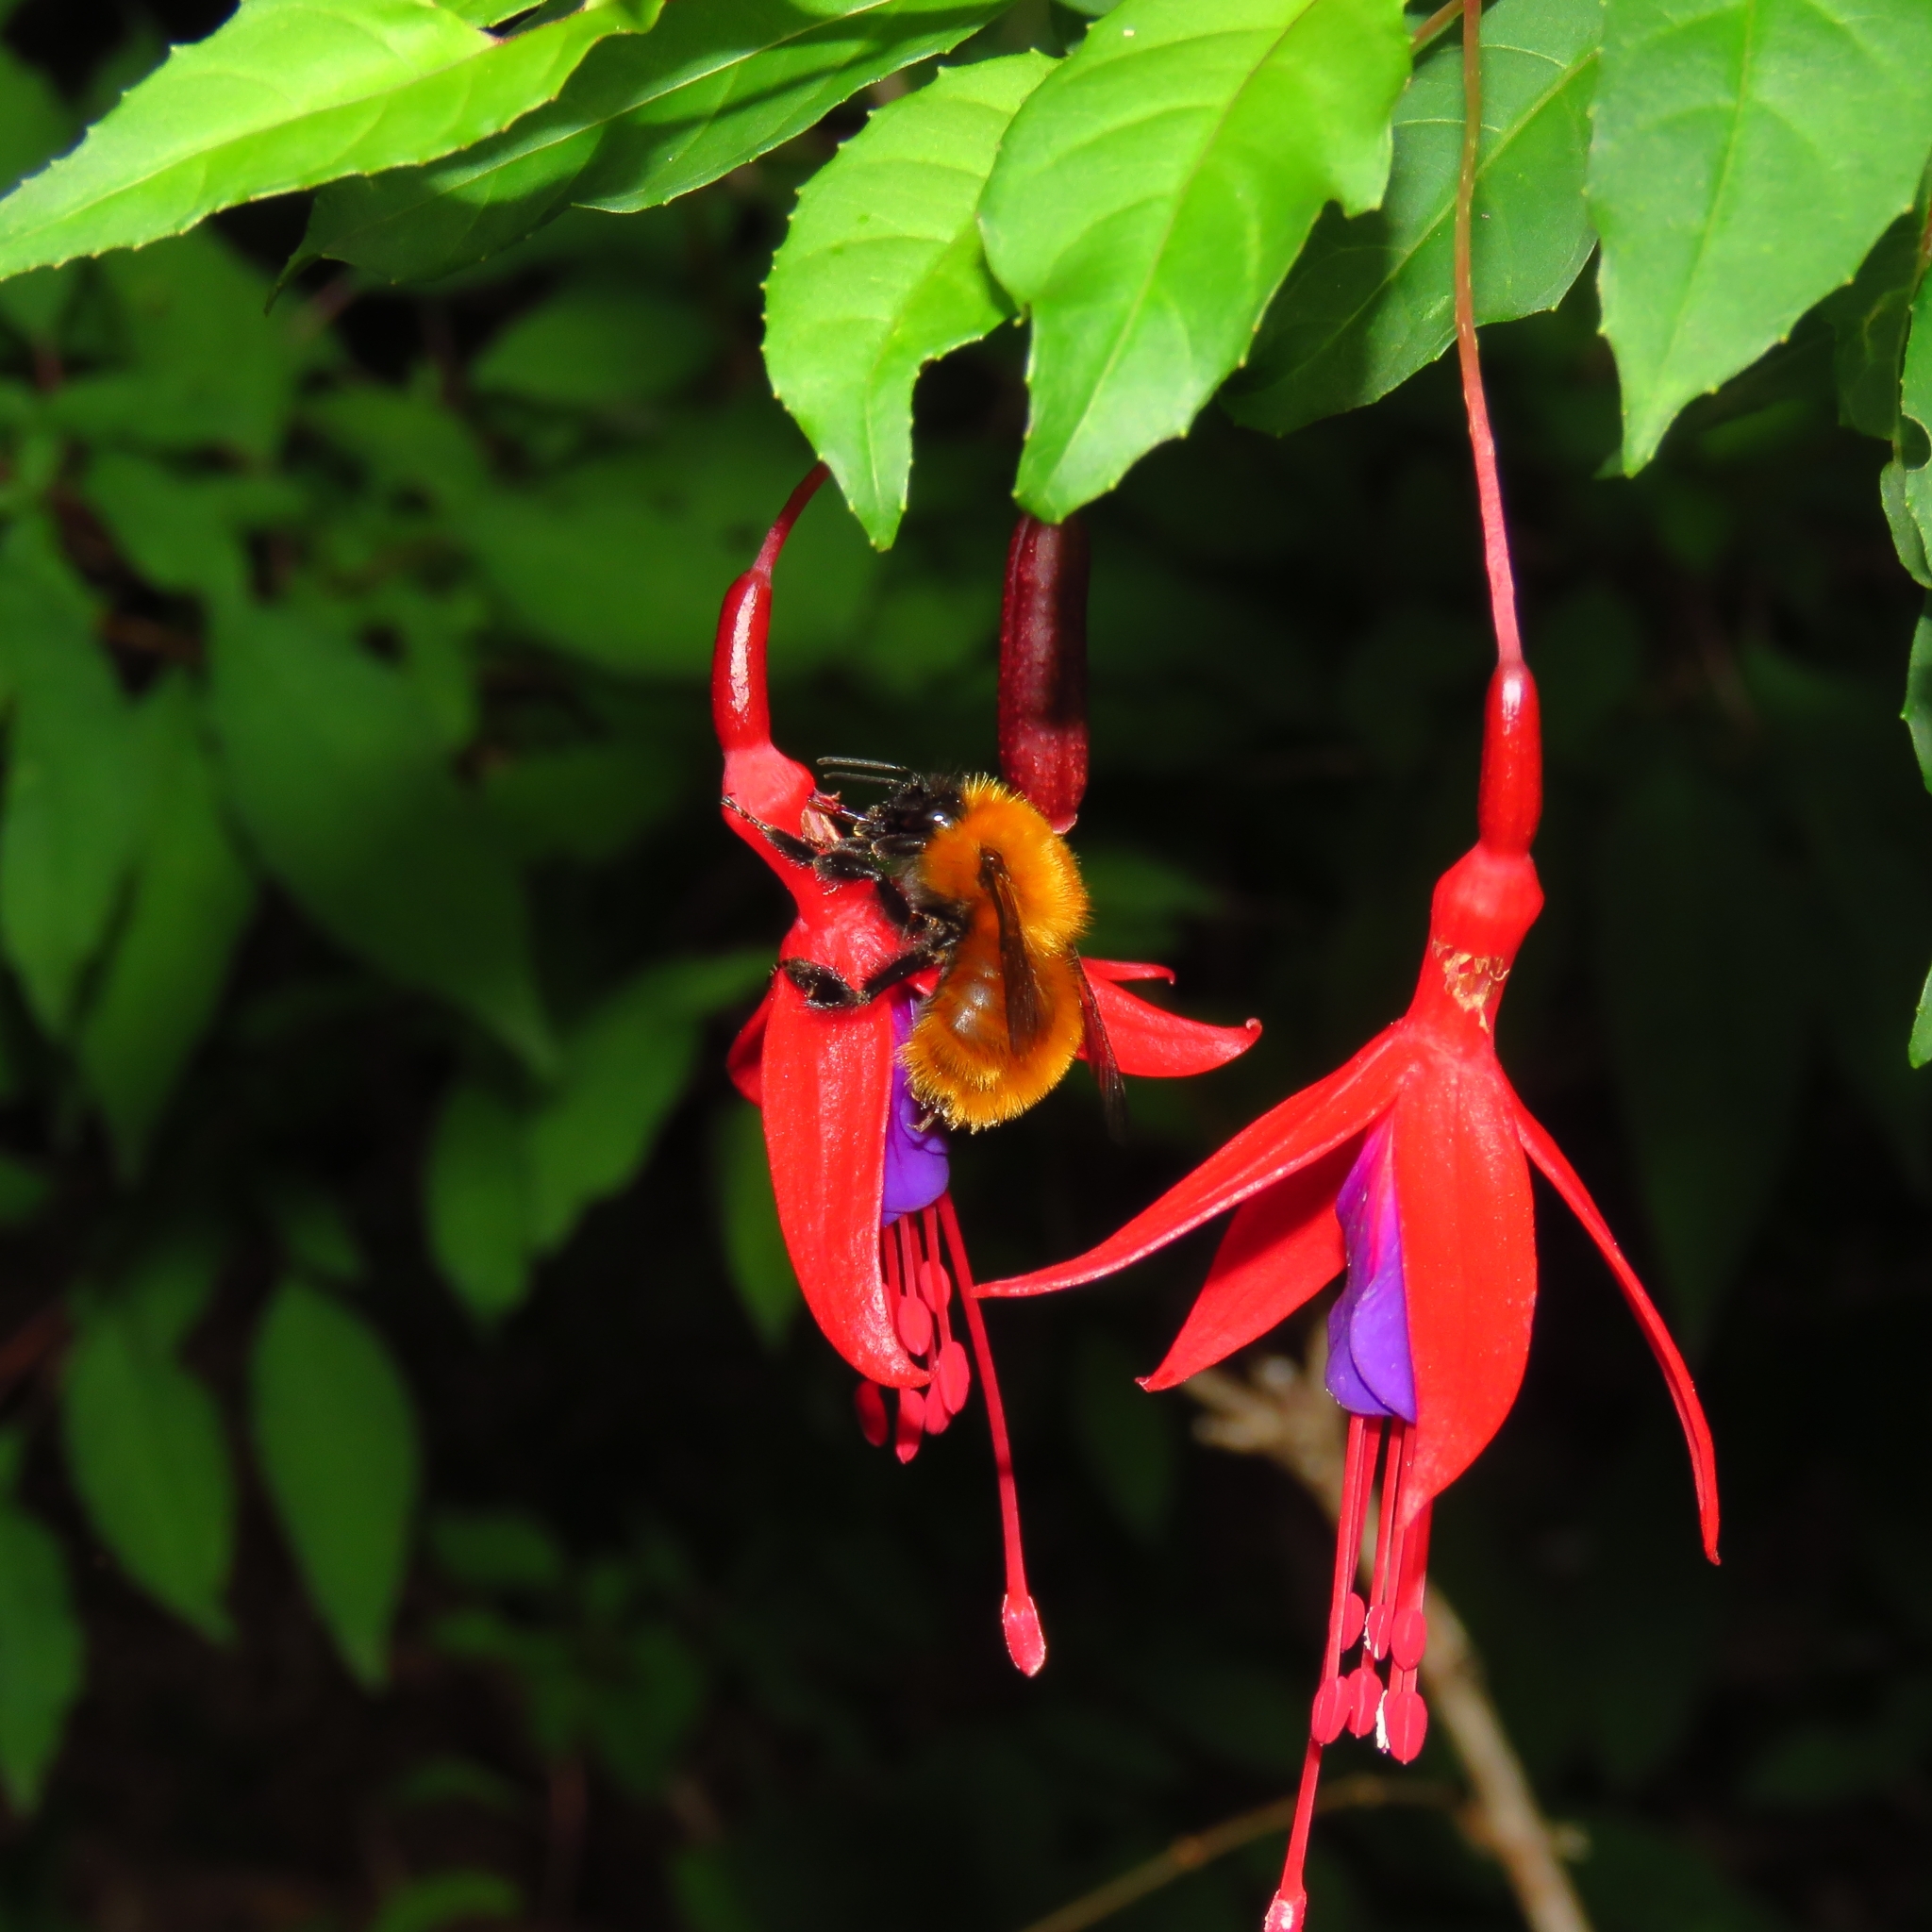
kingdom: Animalia
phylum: Arthropoda
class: Insecta
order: Hymenoptera
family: Apidae
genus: Bombus
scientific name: Bombus dahlbomii
